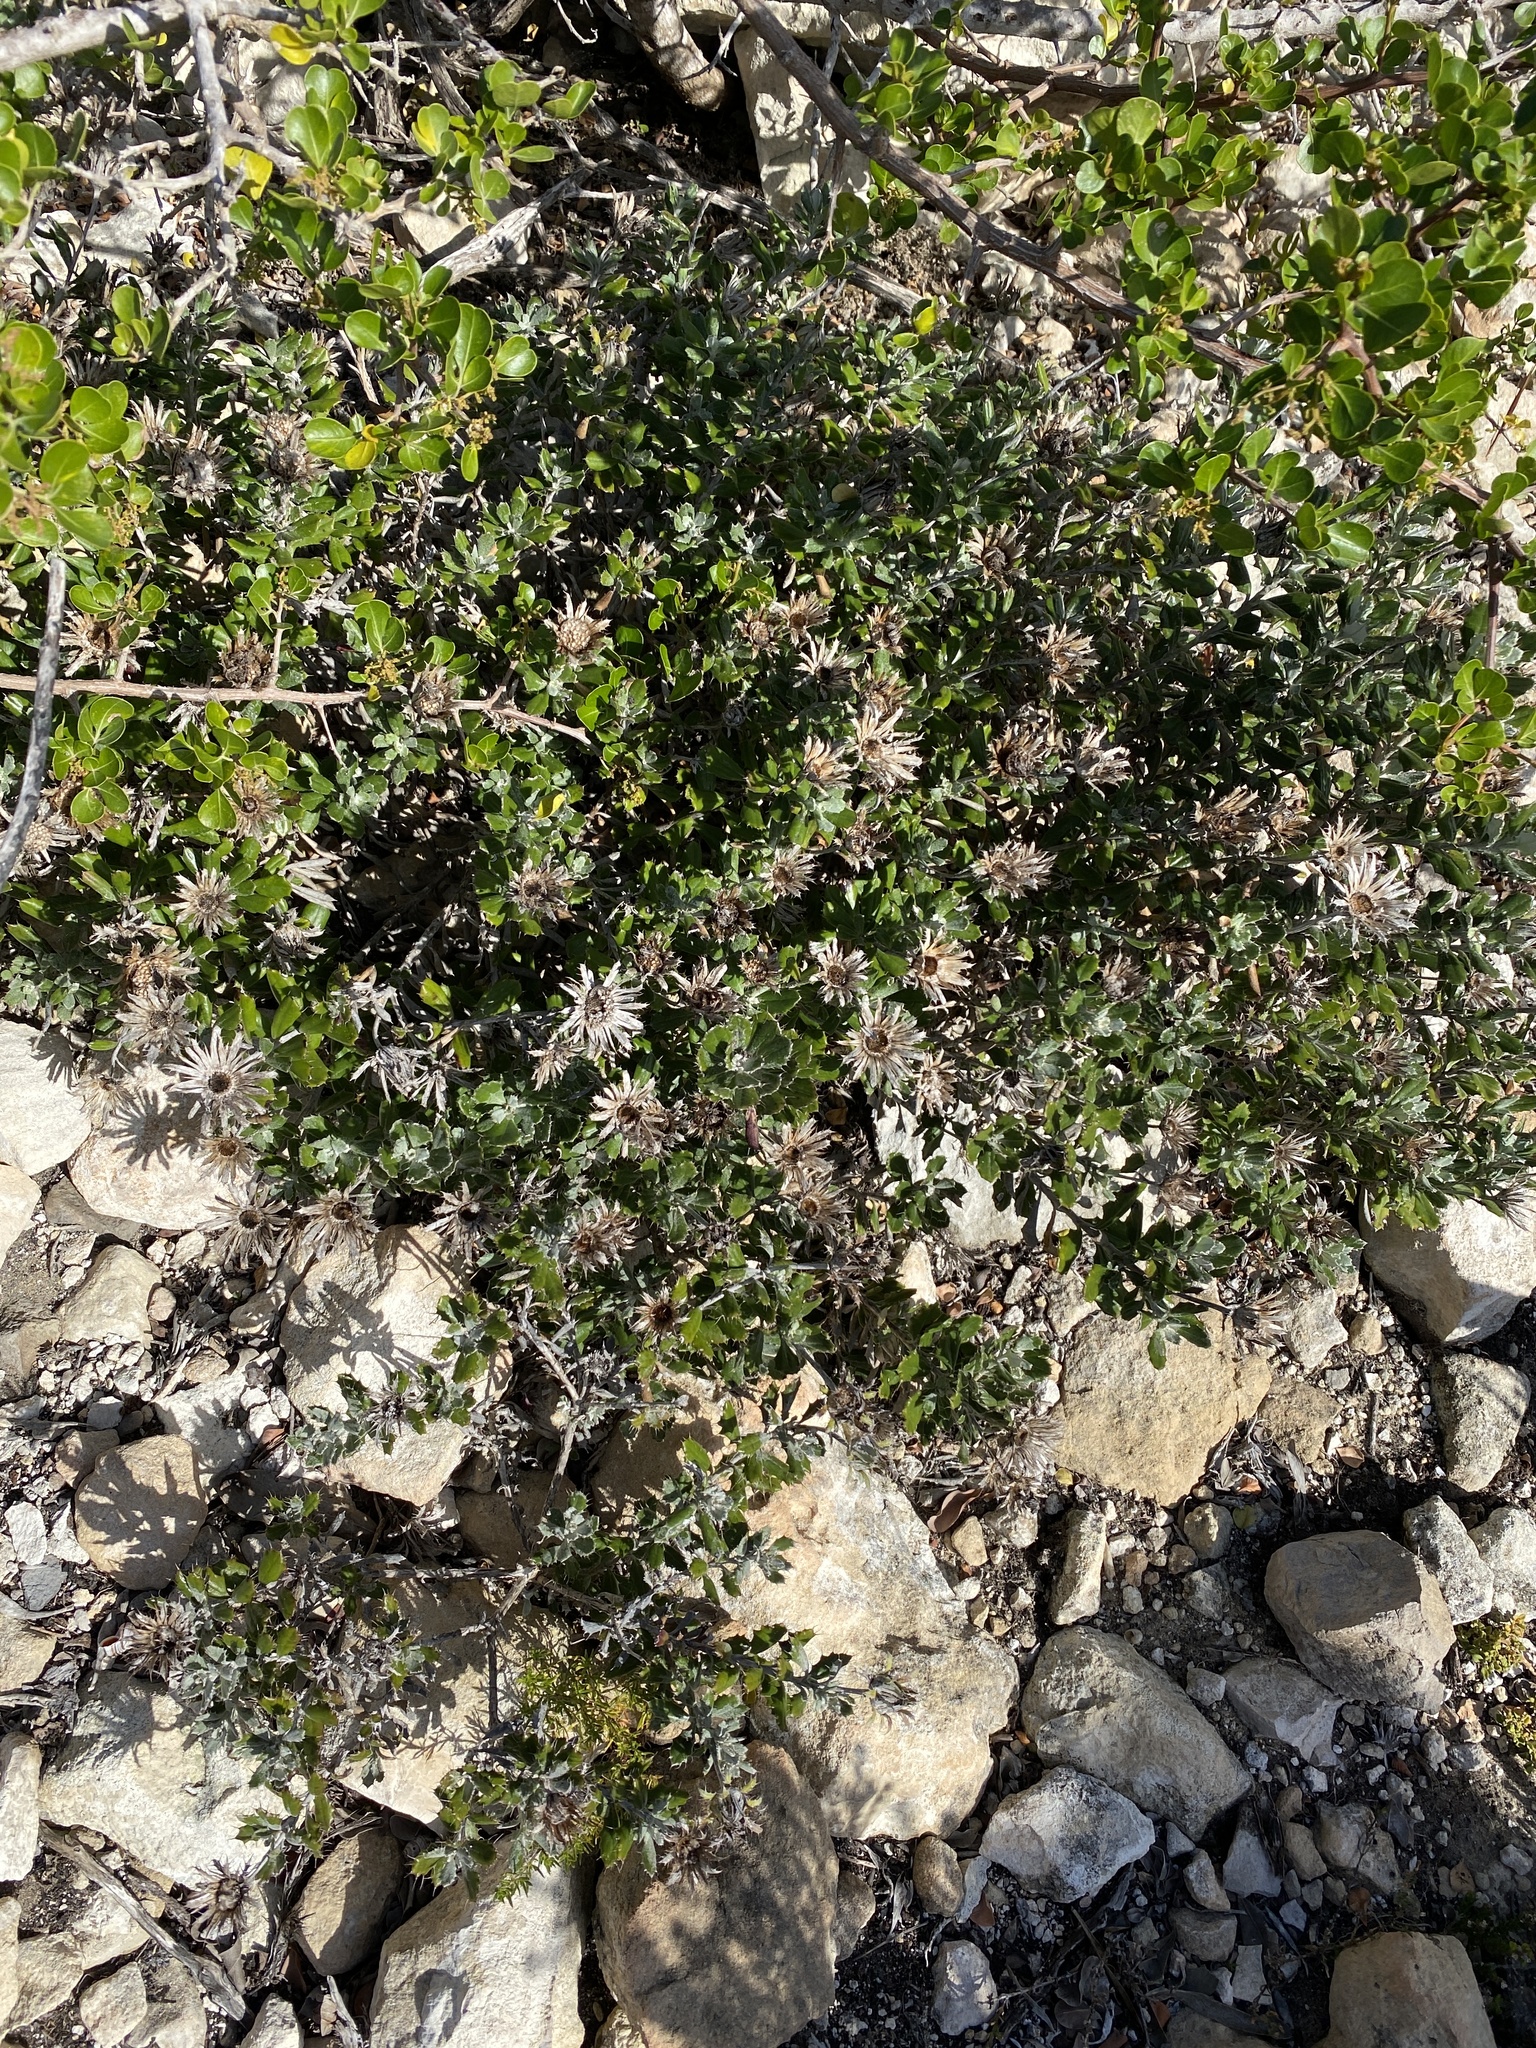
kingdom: Plantae
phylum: Tracheophyta
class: Magnoliopsida
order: Asterales
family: Asteraceae
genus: Berkheya
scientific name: Berkheya coriacea
